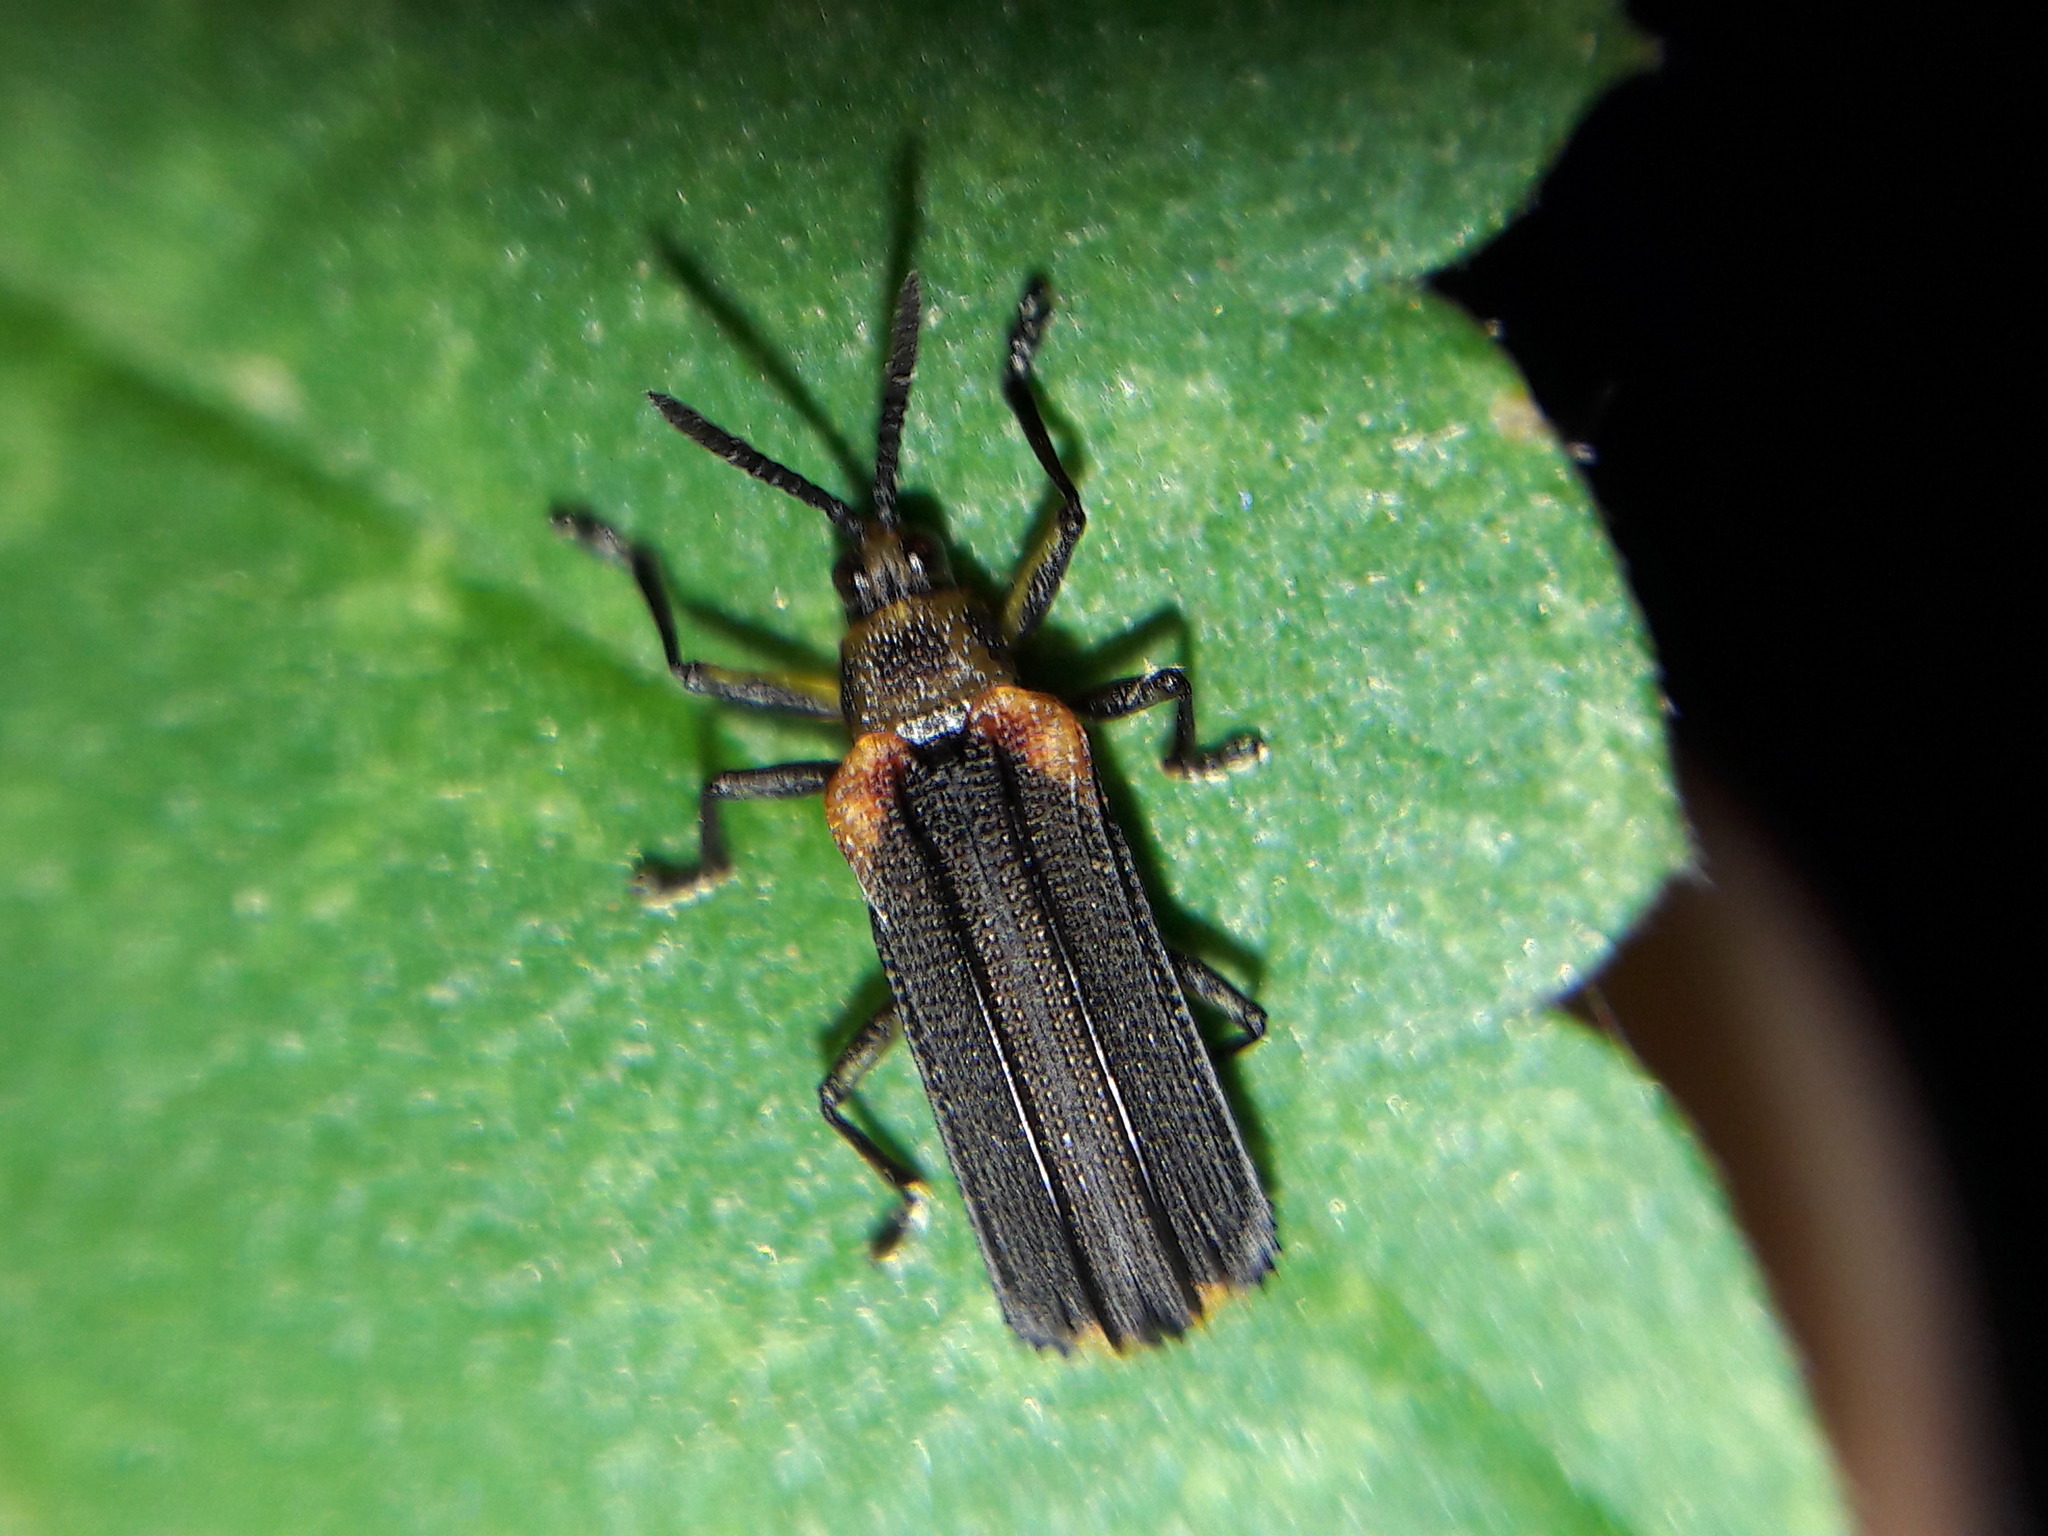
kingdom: Animalia
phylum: Arthropoda
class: Insecta
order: Coleoptera
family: Chrysomelidae
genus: Heterispa
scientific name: Heterispa vinula
